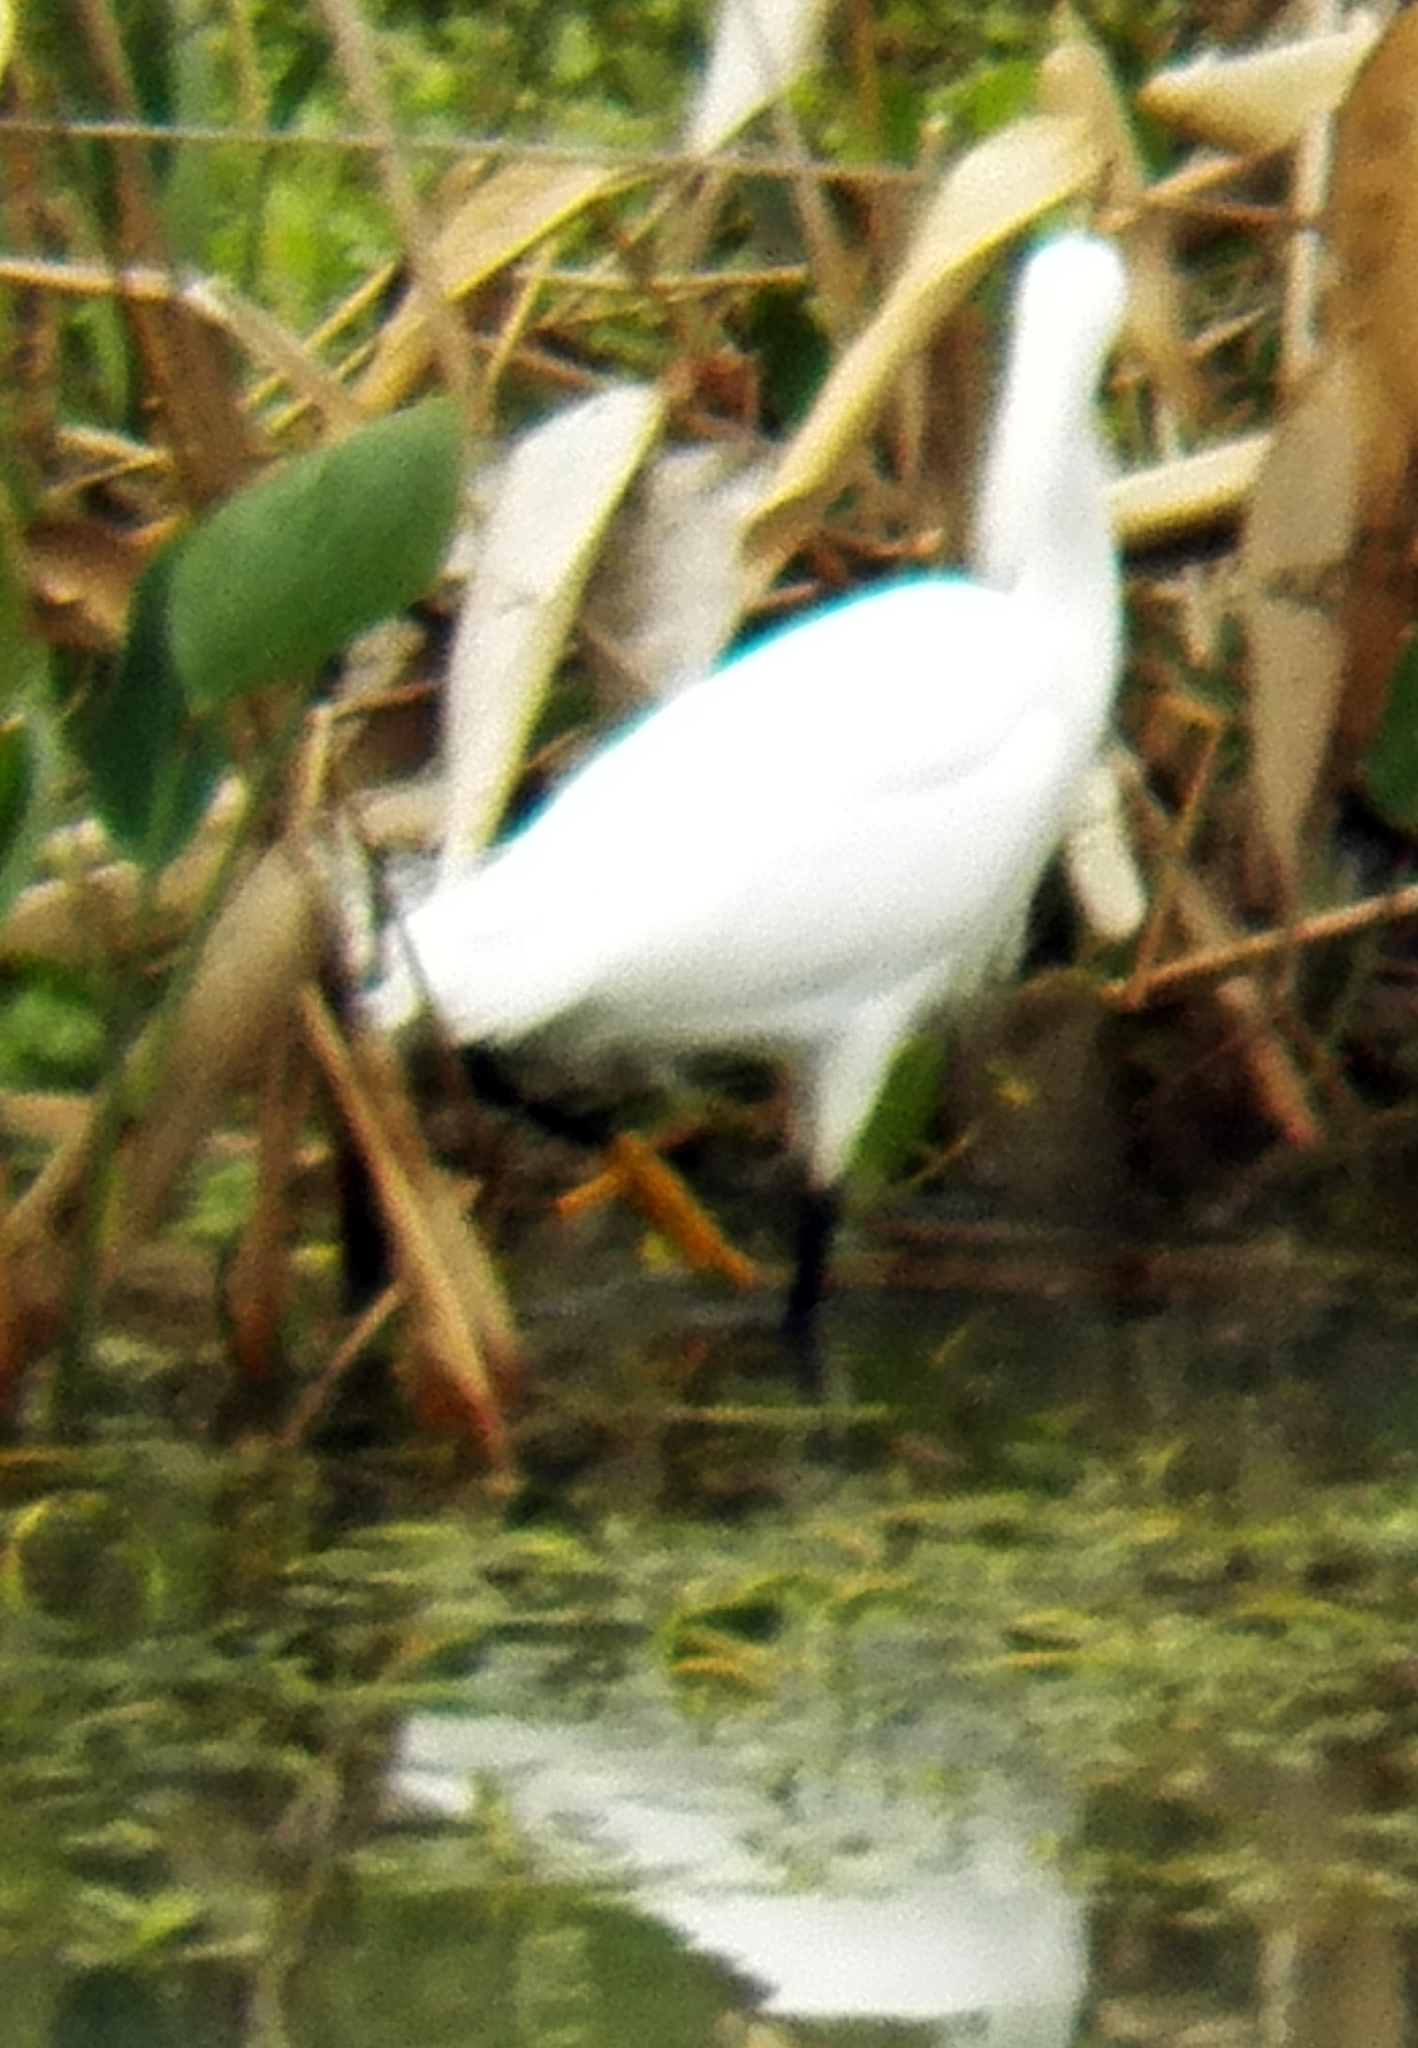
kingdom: Animalia
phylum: Chordata
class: Aves
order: Pelecaniformes
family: Ardeidae
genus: Egretta
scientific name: Egretta thula
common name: Snowy egret
